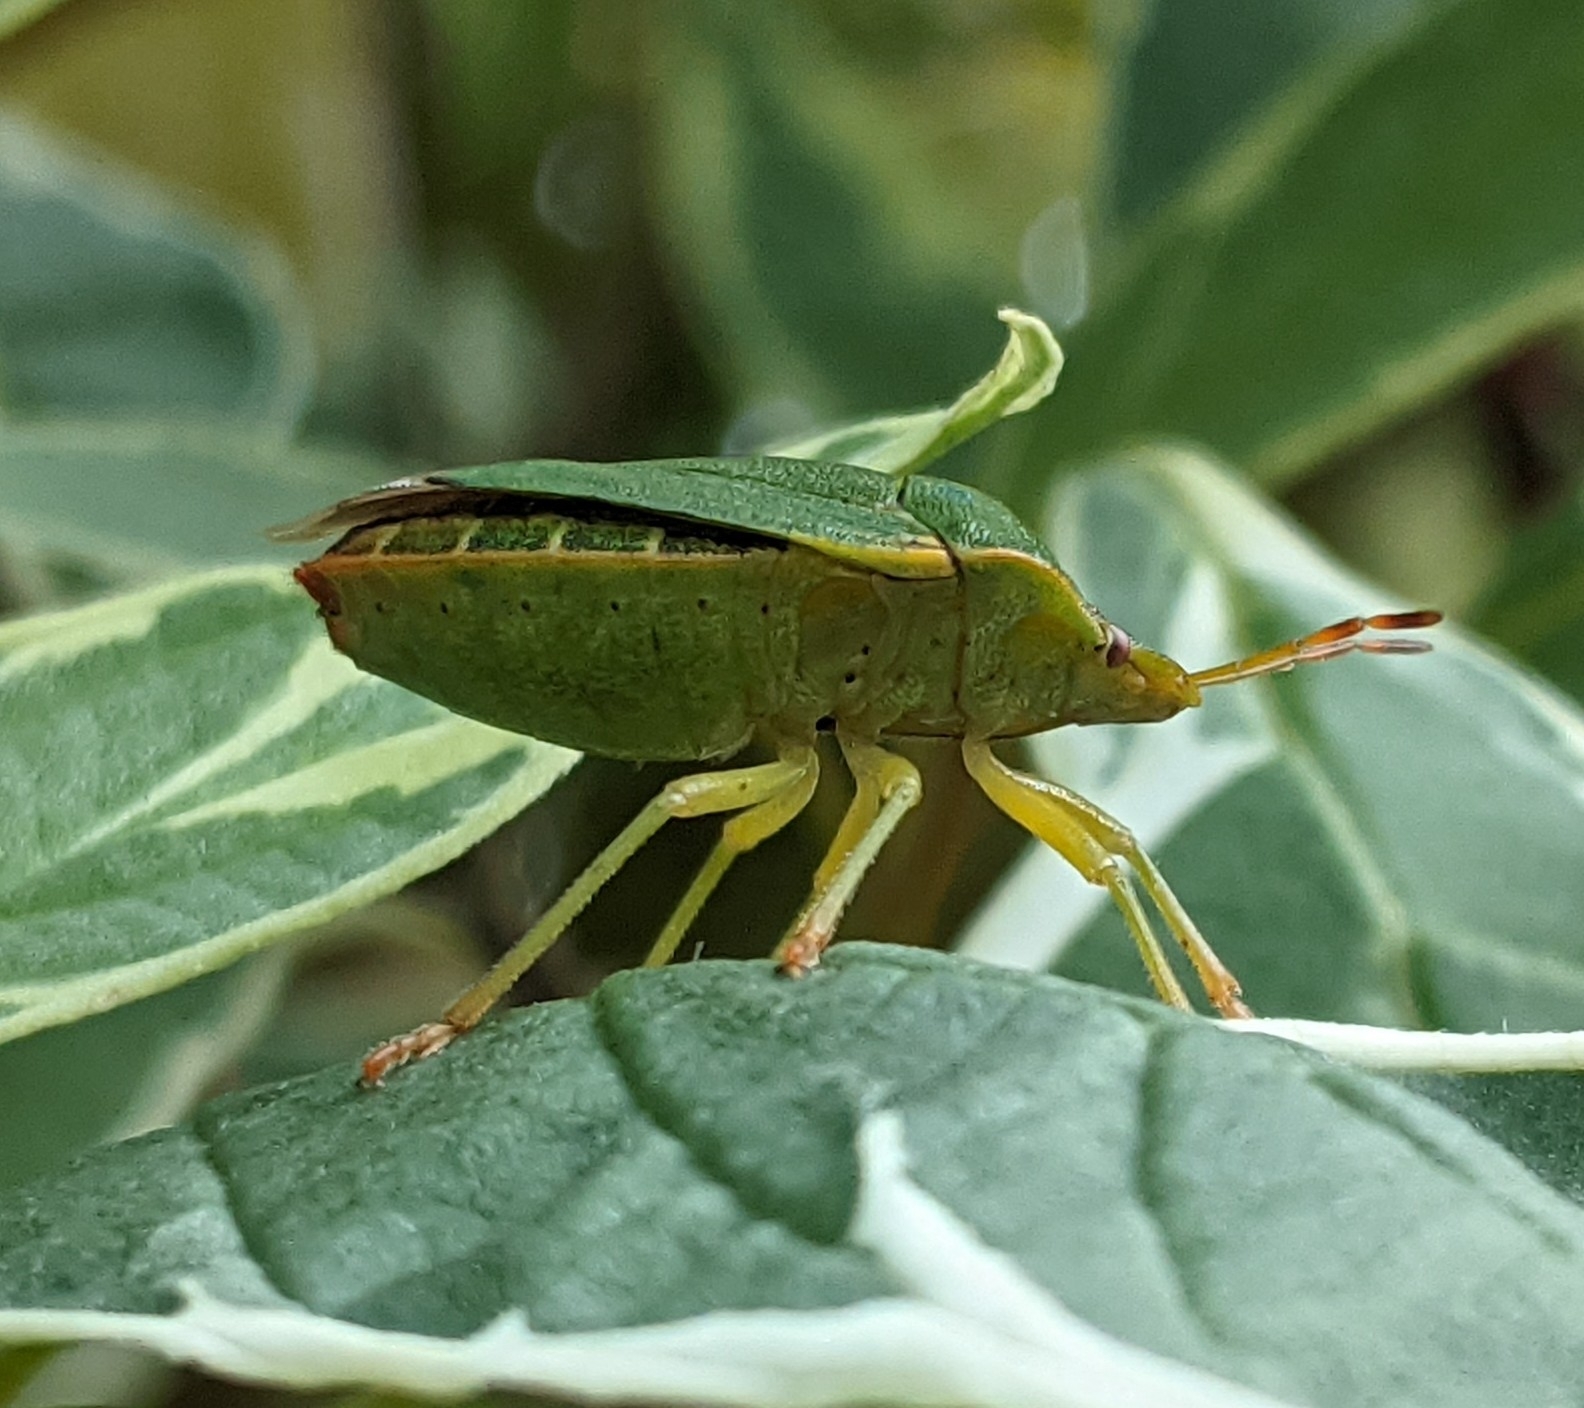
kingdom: Animalia
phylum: Arthropoda
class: Insecta
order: Hemiptera
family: Pentatomidae
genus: Palomena
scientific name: Palomena prasina
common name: Green shieldbug
